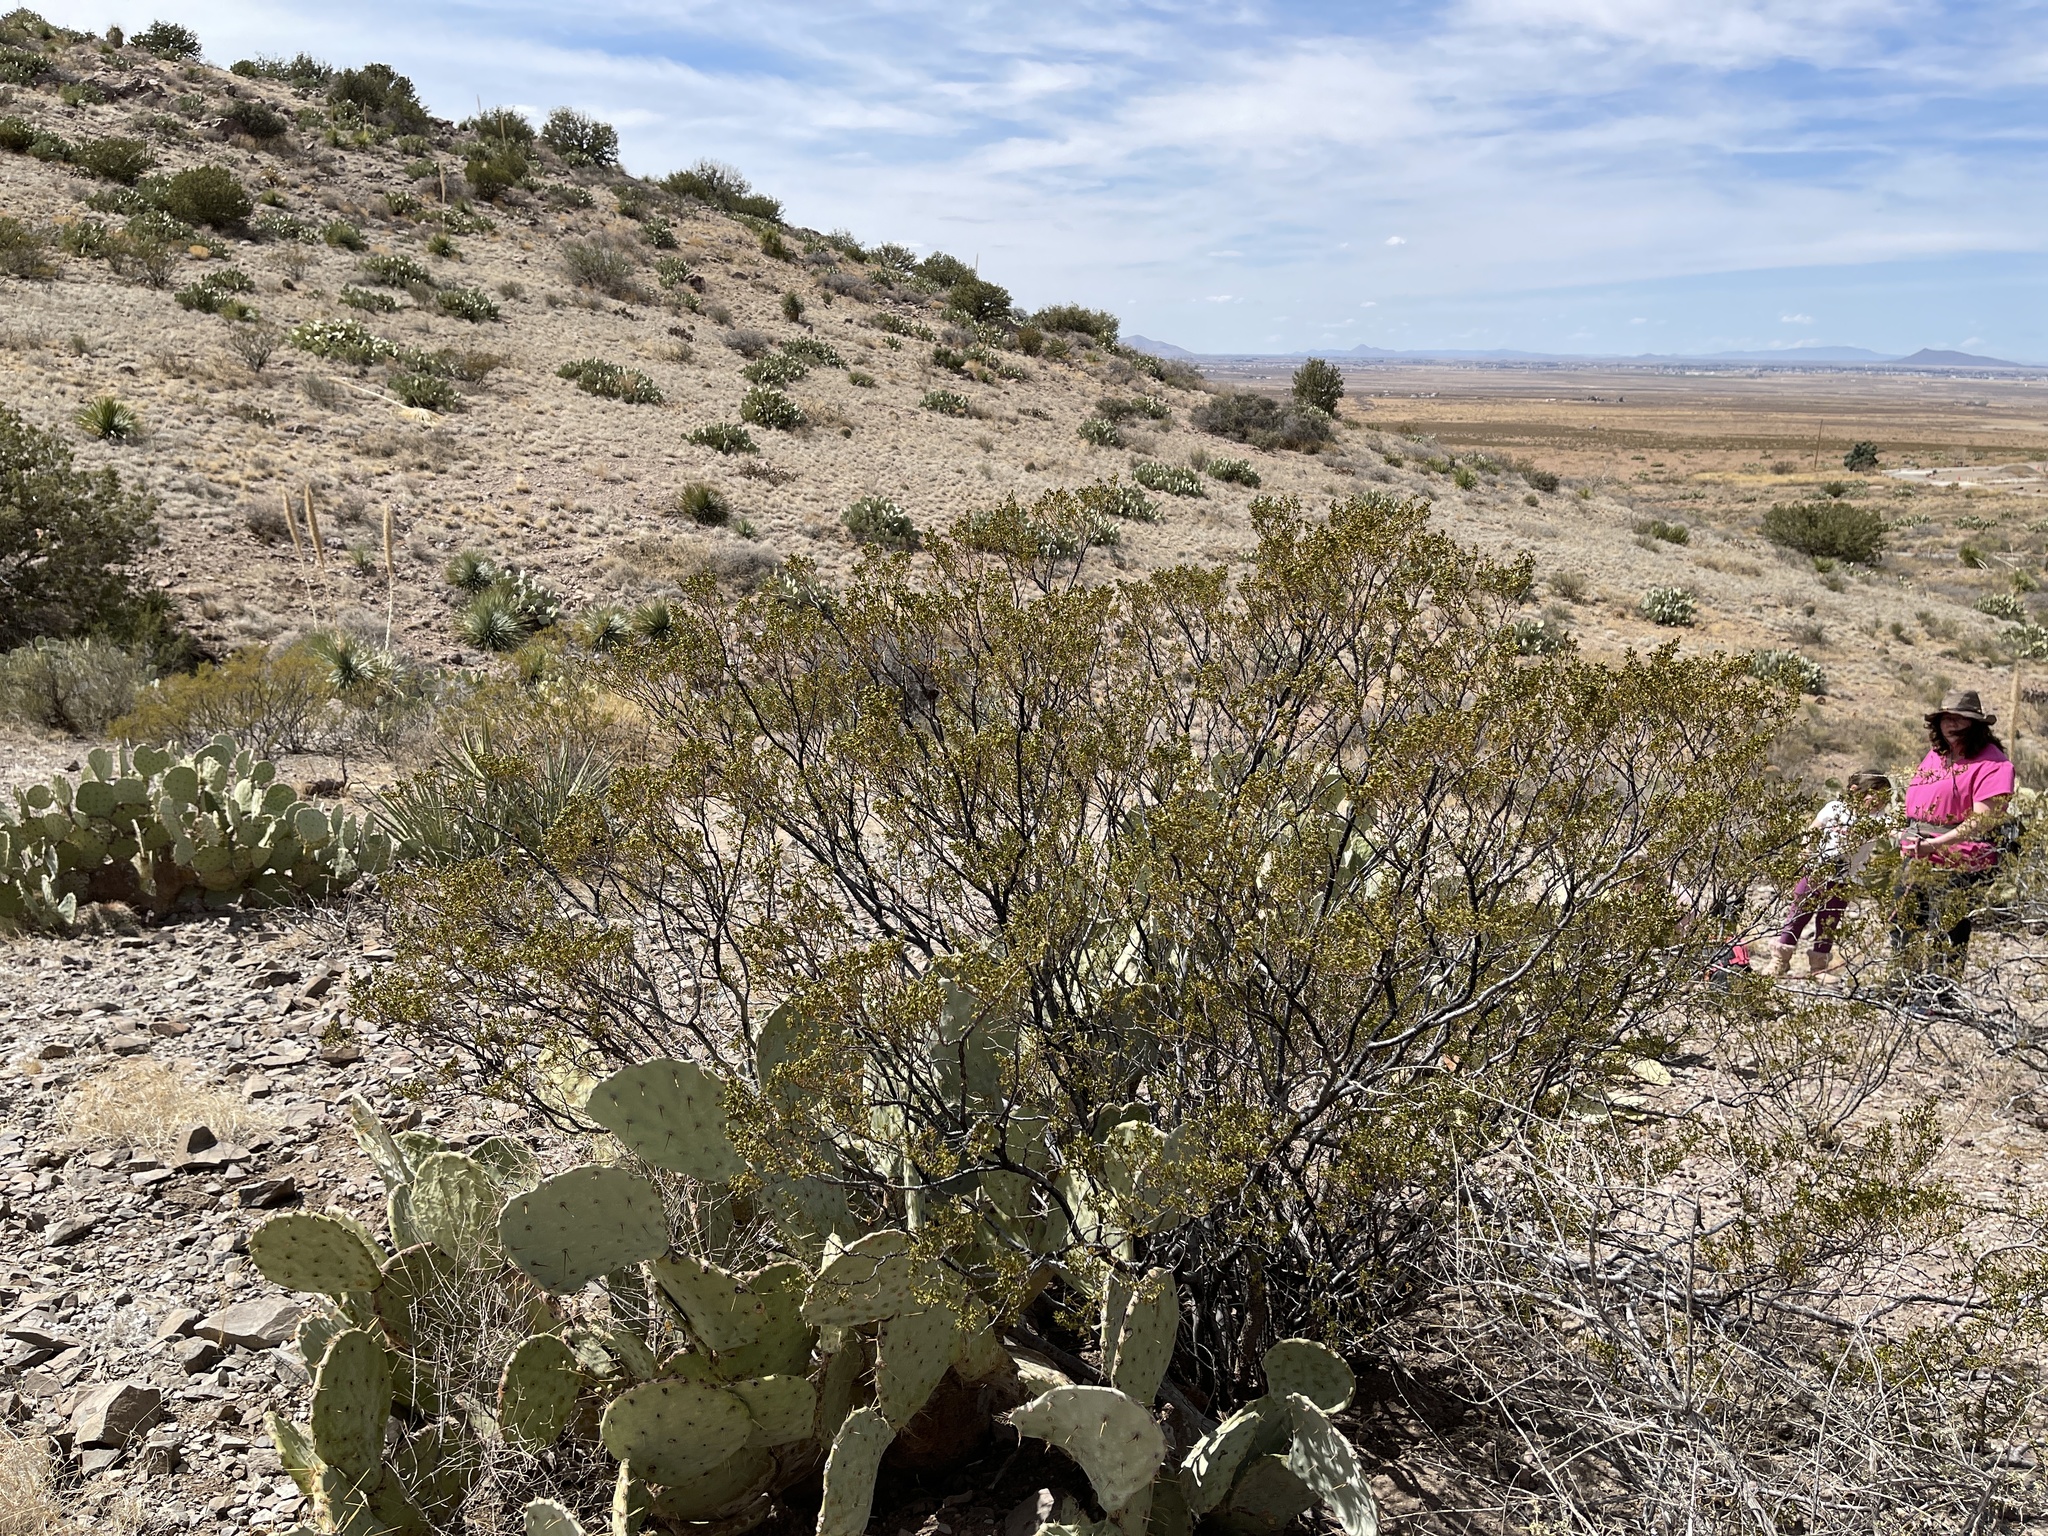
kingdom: Plantae
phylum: Tracheophyta
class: Magnoliopsida
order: Zygophyllales
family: Zygophyllaceae
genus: Larrea
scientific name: Larrea tridentata
